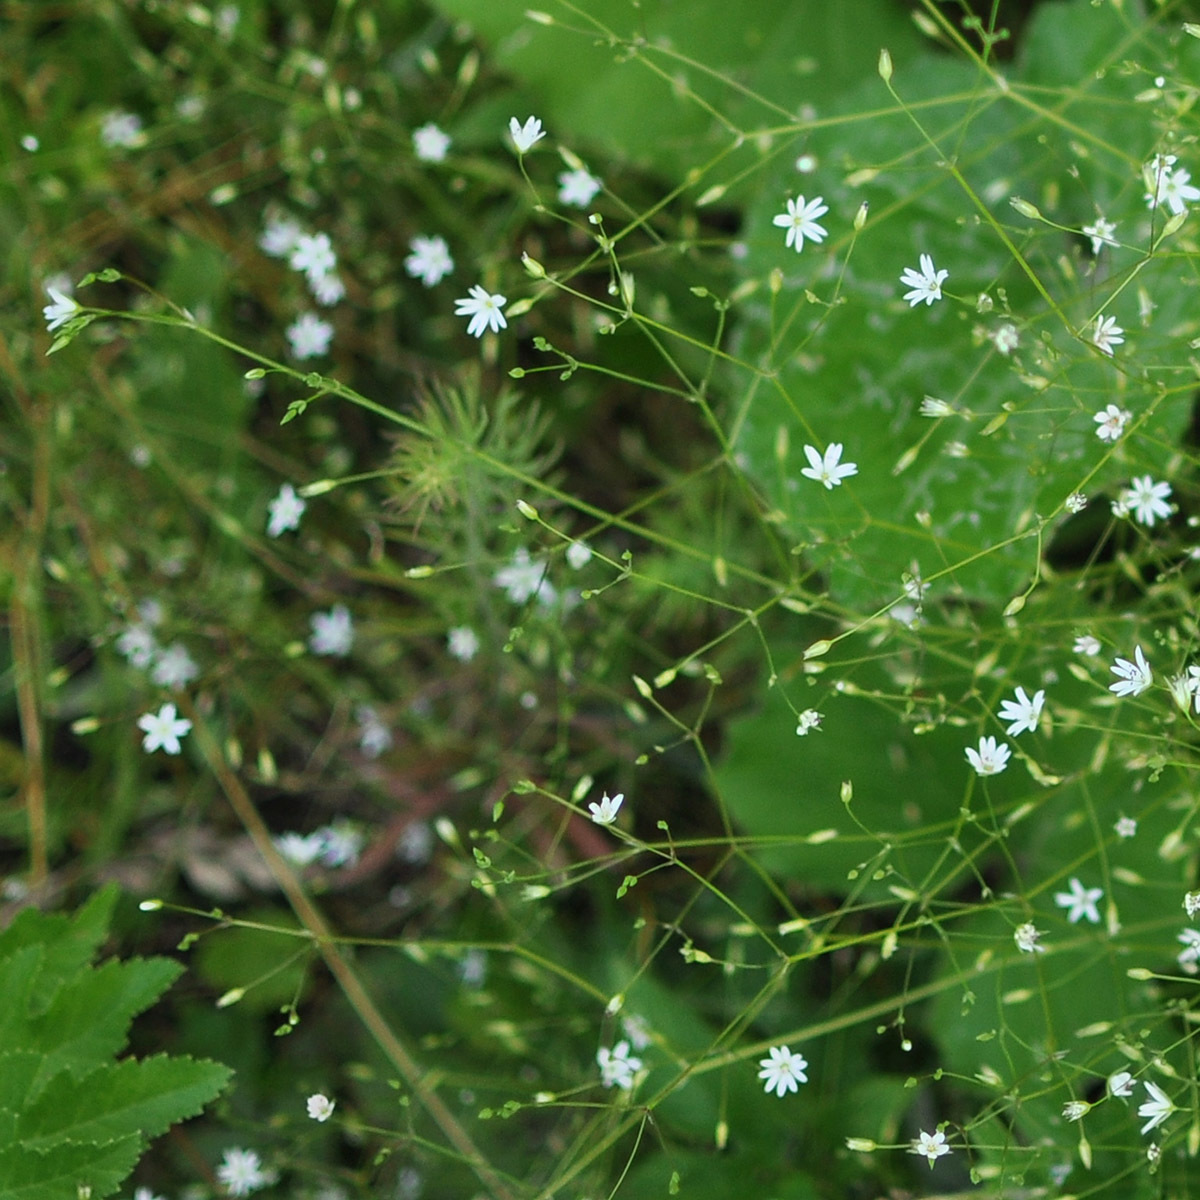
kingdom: Plantae
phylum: Tracheophyta
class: Magnoliopsida
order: Caryophyllales
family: Caryophyllaceae
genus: Stellaria
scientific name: Stellaria graminea
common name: Grass-like starwort
